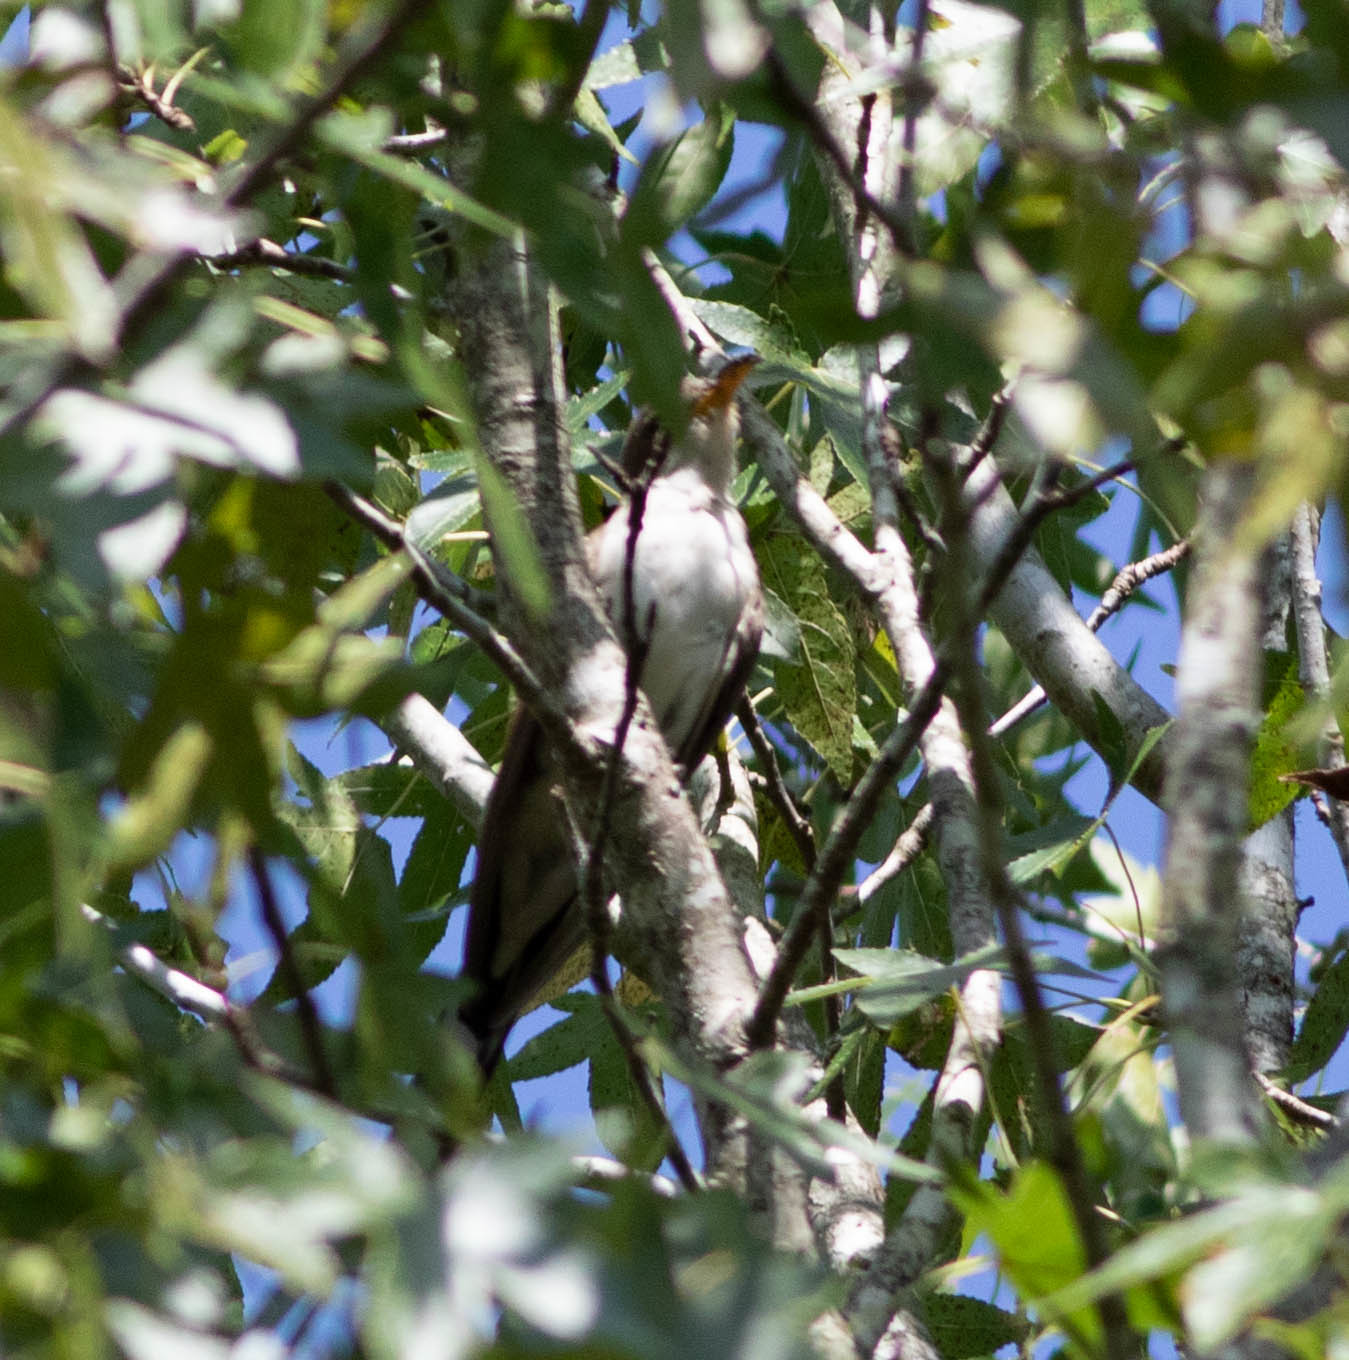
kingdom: Animalia
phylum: Chordata
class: Aves
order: Cuculiformes
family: Cuculidae
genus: Coccyzus
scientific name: Coccyzus americanus
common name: Yellow-billed cuckoo
